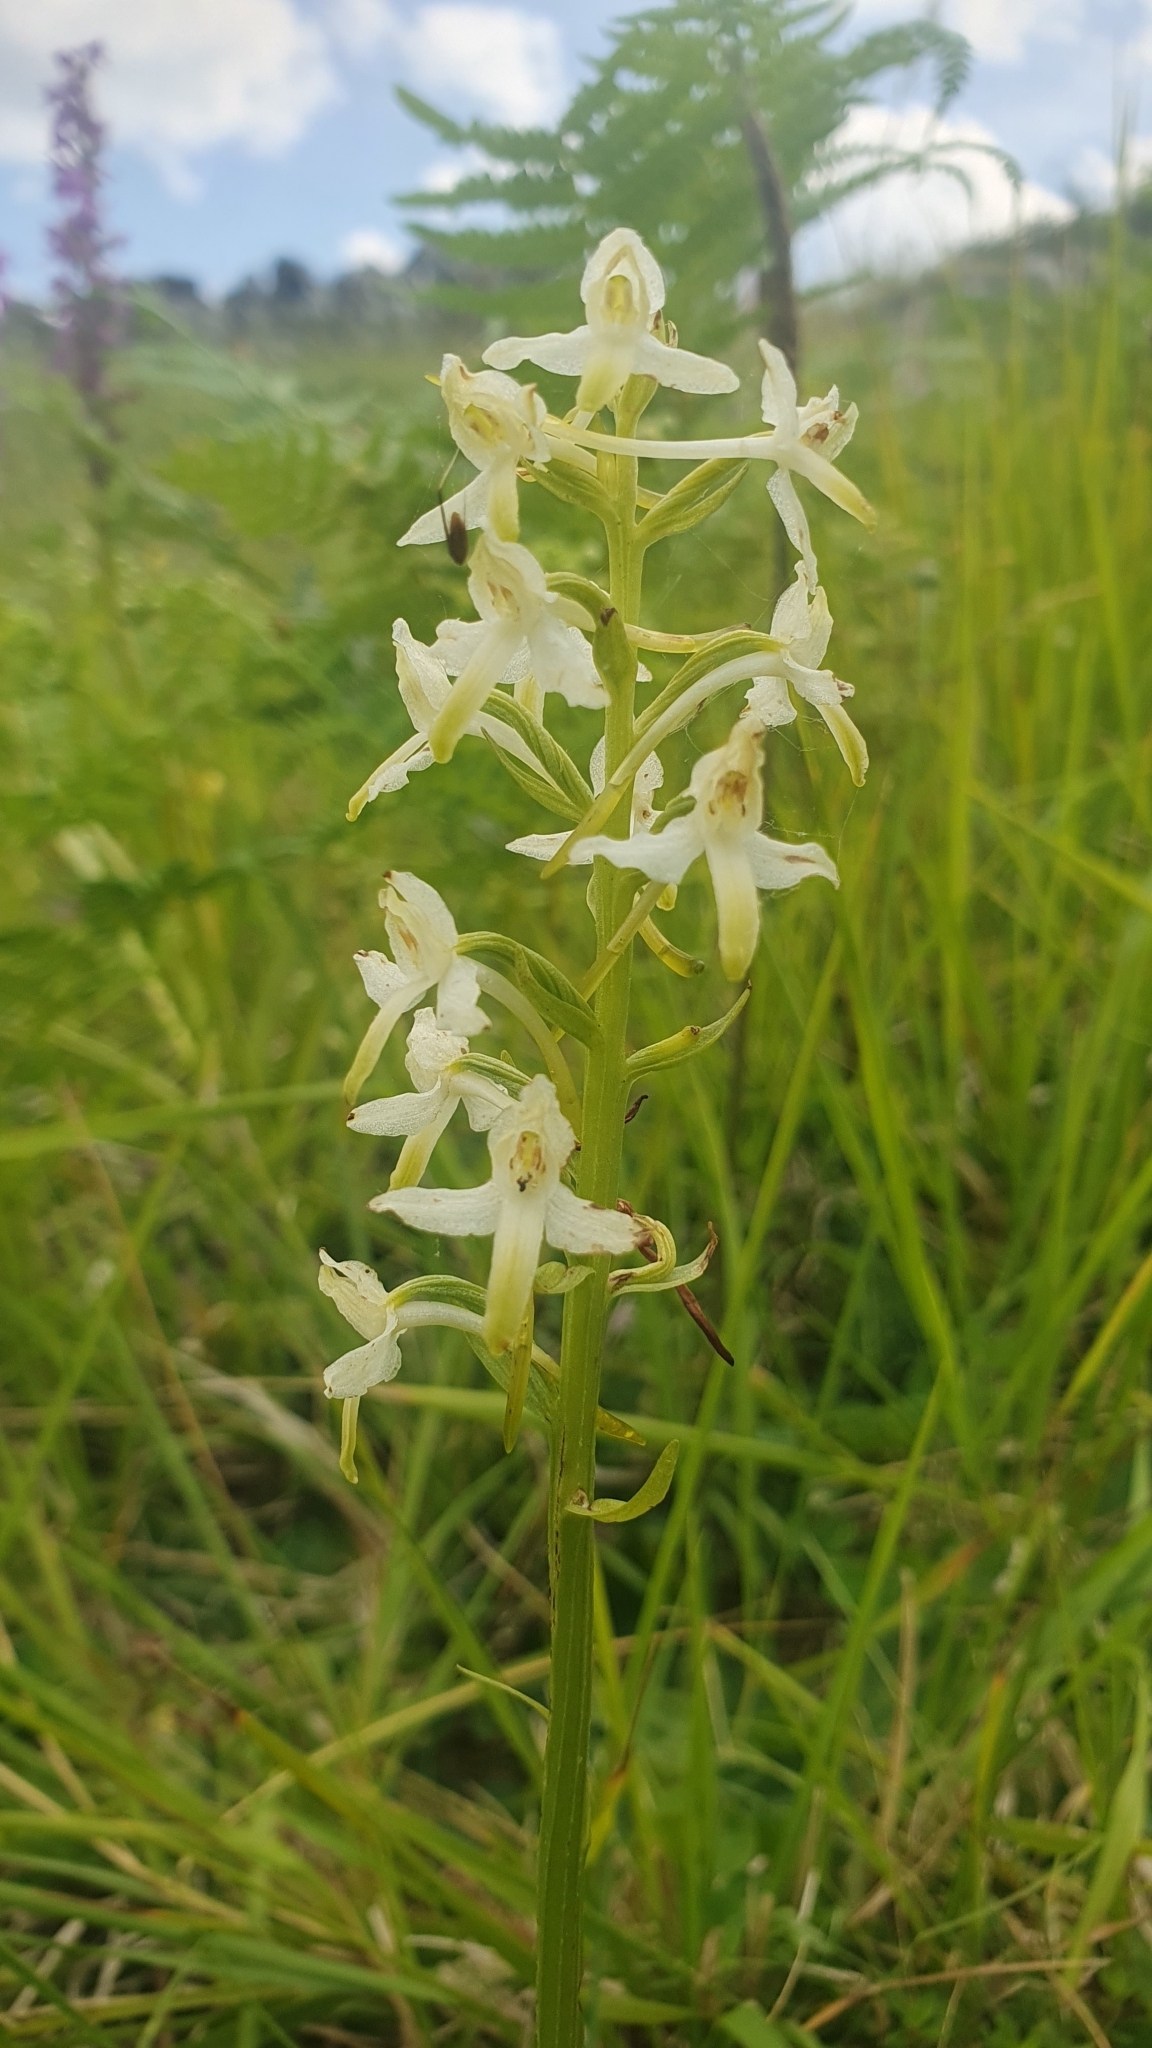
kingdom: Plantae
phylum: Tracheophyta
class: Liliopsida
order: Asparagales
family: Orchidaceae
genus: Platanthera
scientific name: Platanthera bifolia
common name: Lesser butterfly-orchid
